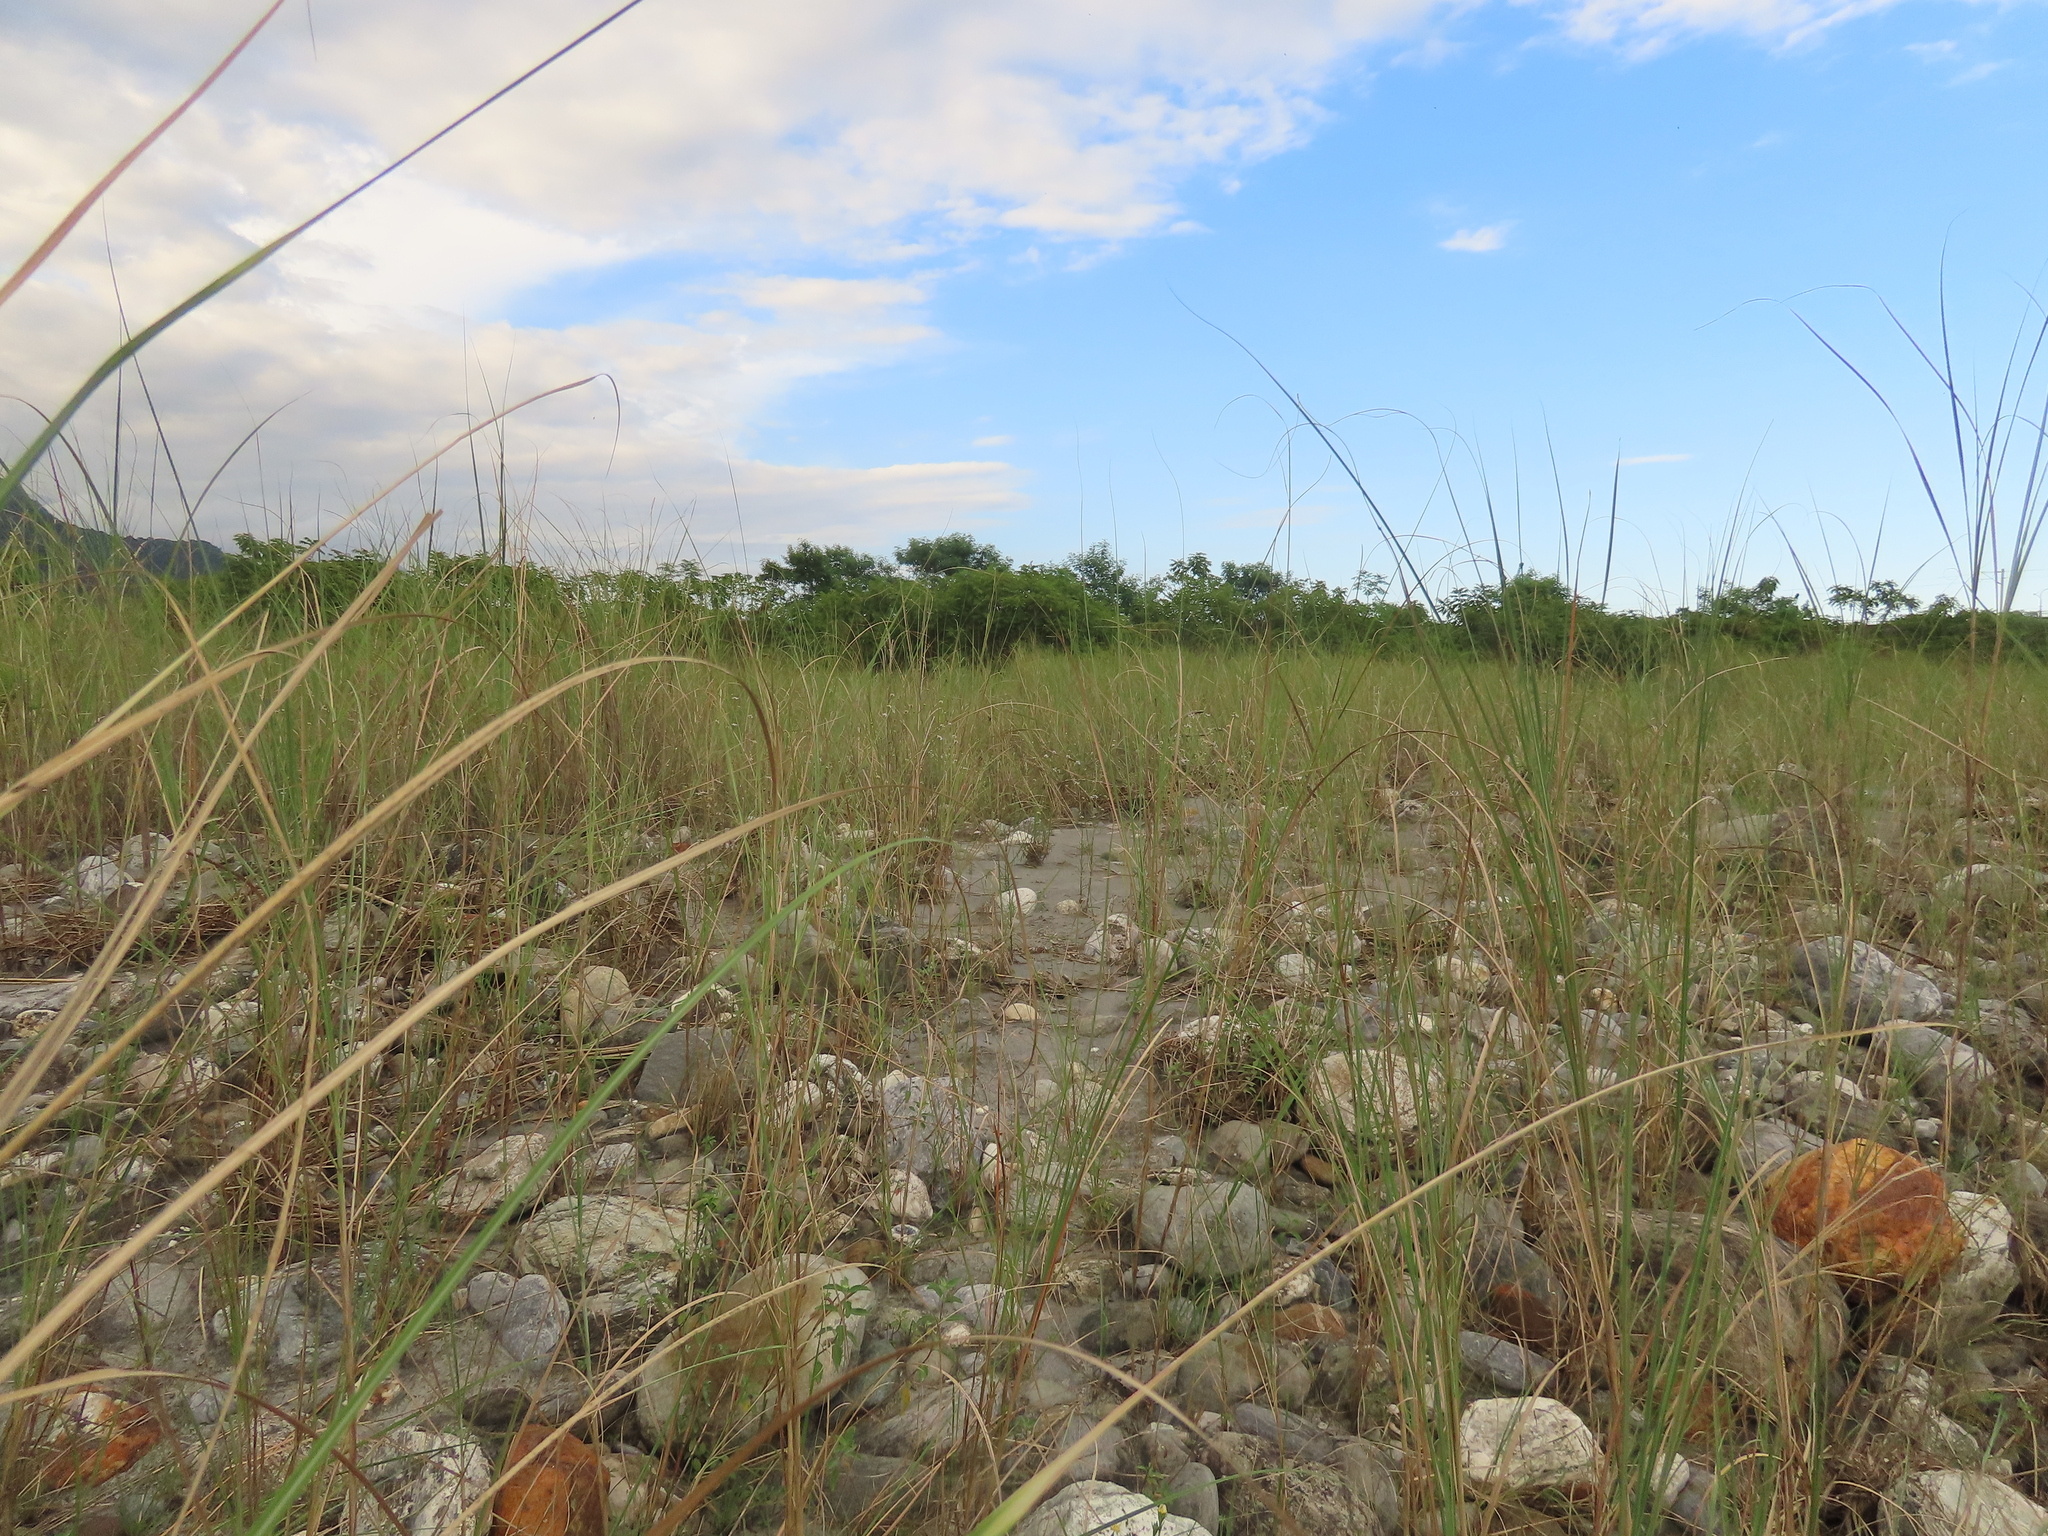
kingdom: Plantae
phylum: Tracheophyta
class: Magnoliopsida
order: Asterales
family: Asteraceae
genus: Heteropappus
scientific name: Heteropappus altaicus
